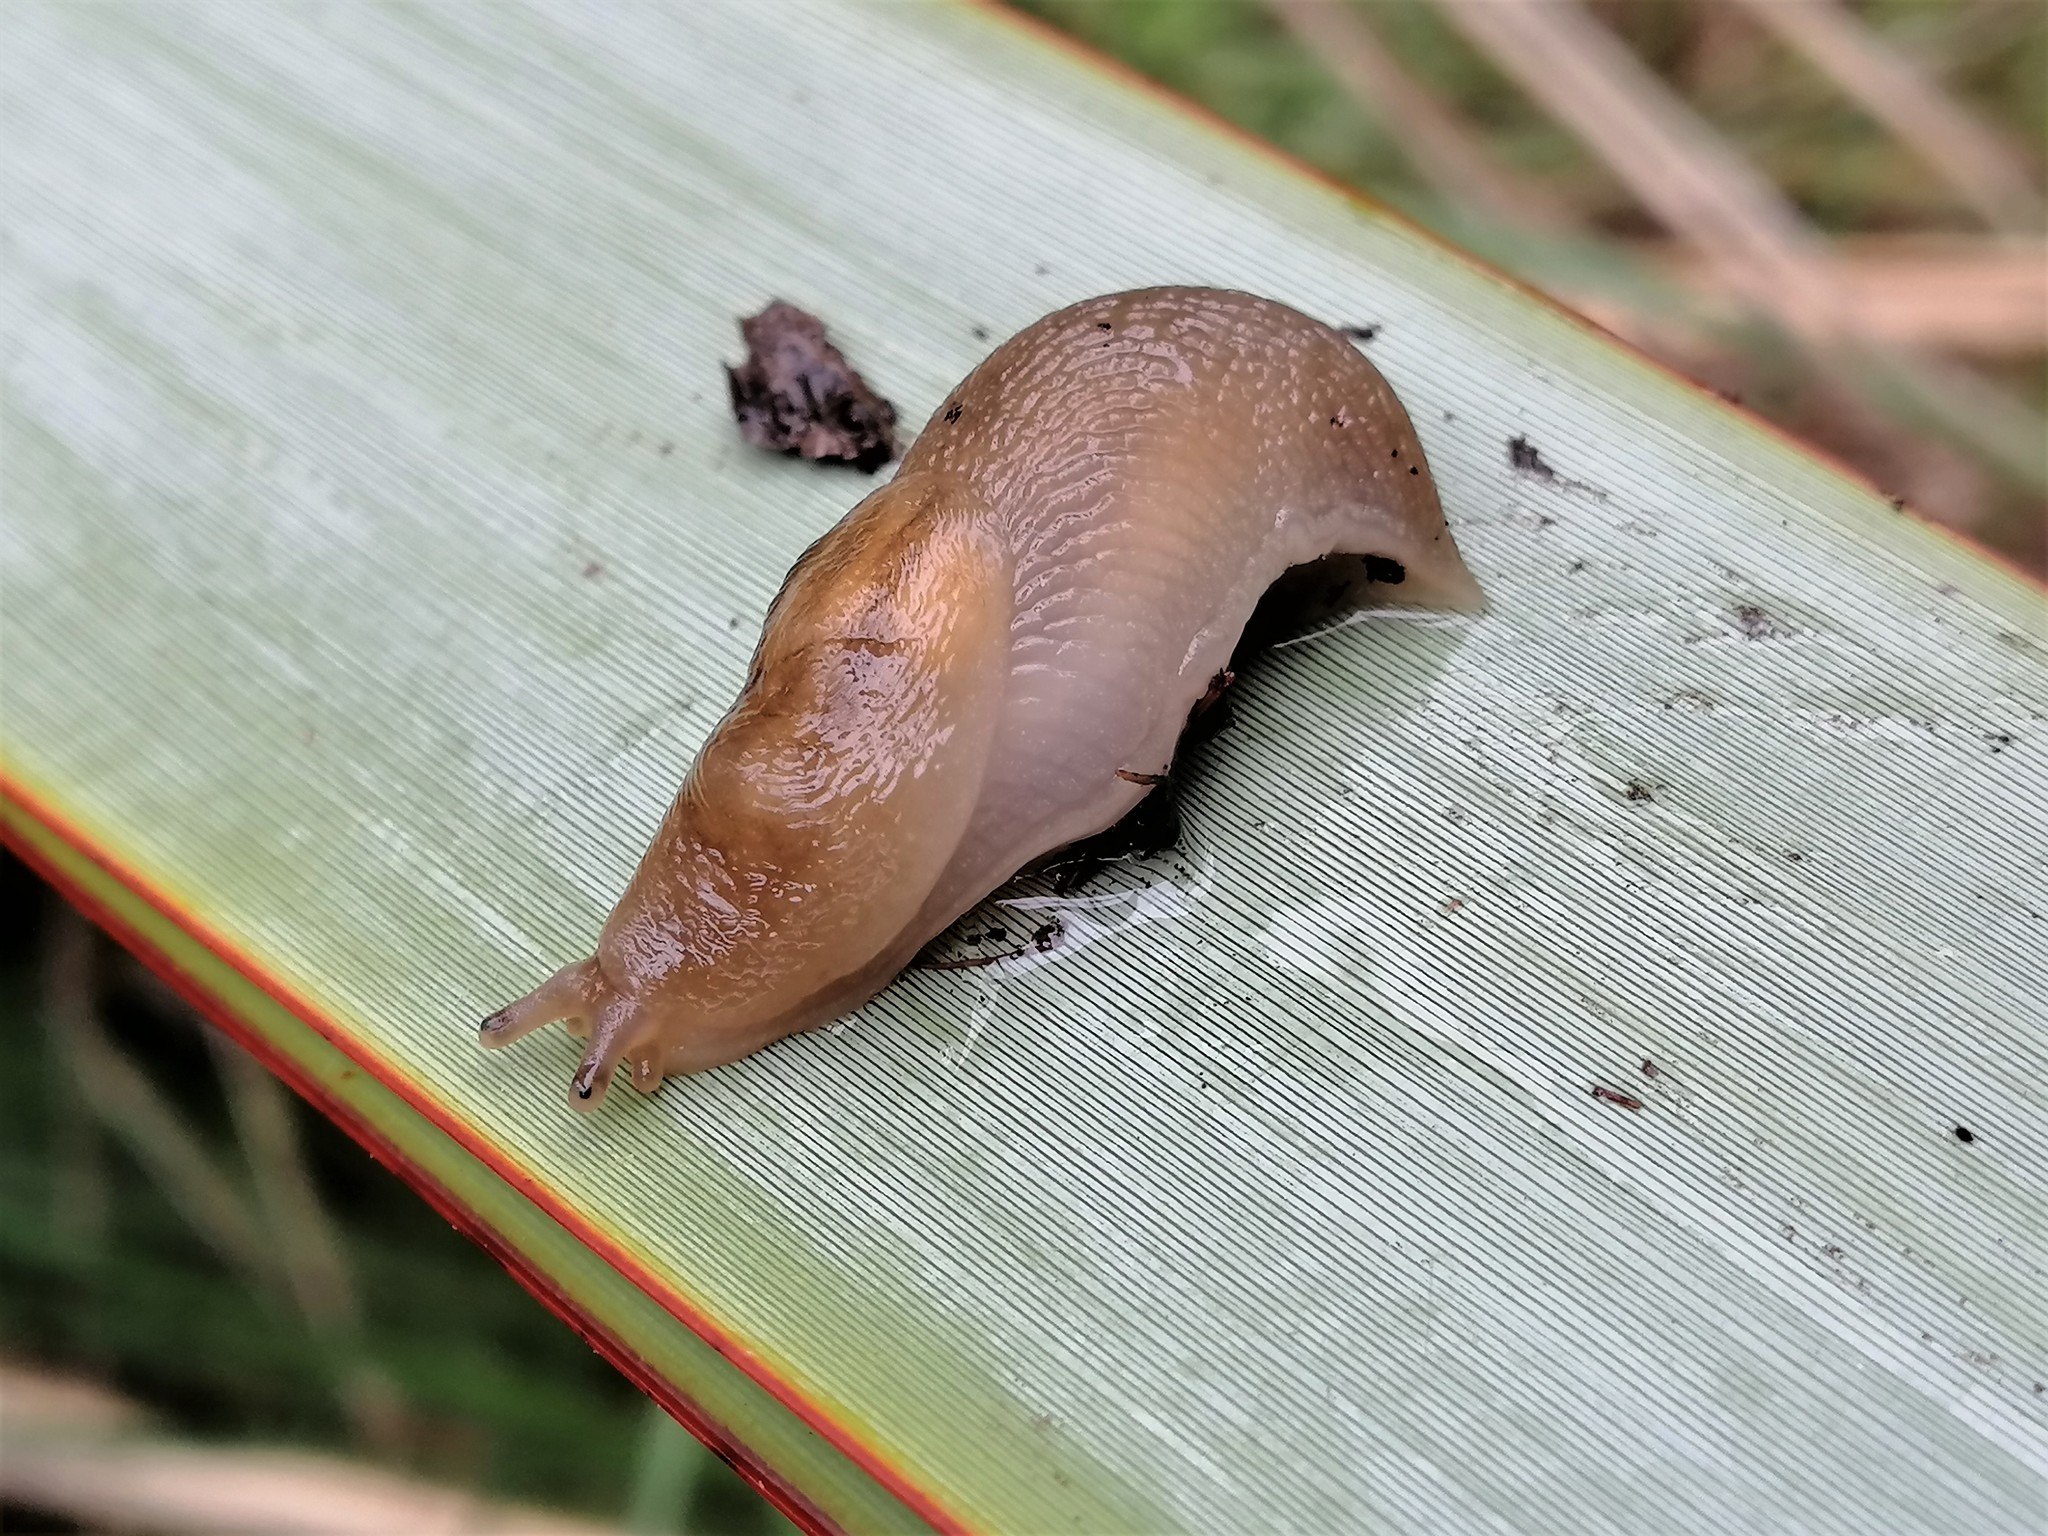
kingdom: Animalia
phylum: Mollusca
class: Gastropoda
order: Stylommatophora
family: Limacidae
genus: Ambigolimax
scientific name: Ambigolimax
